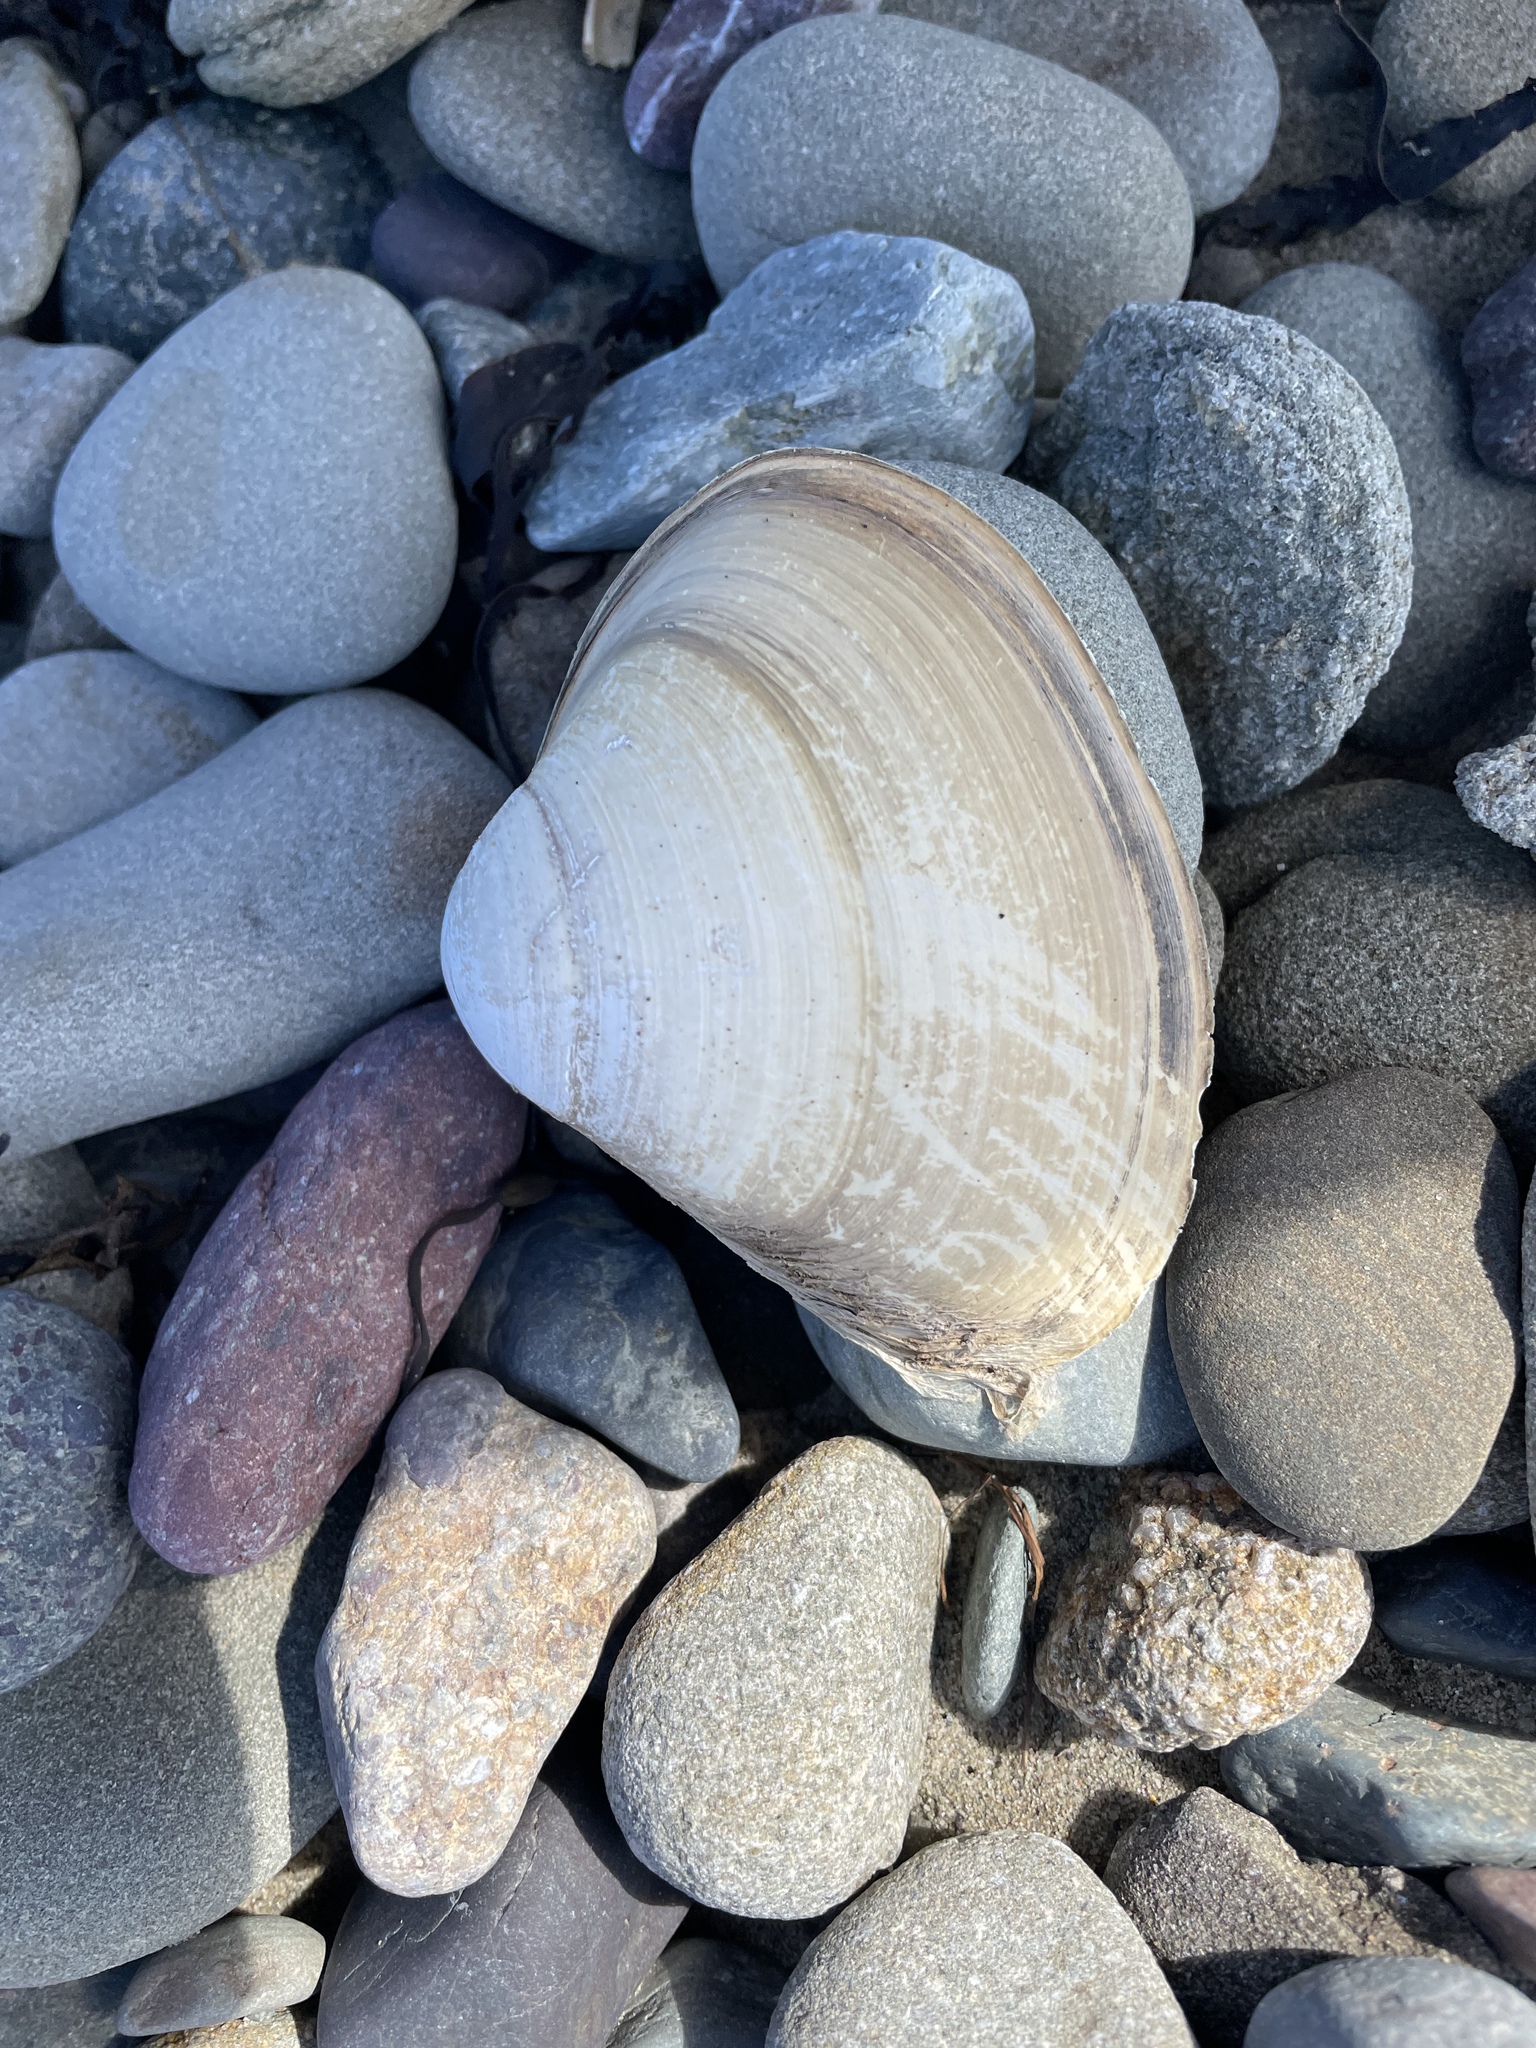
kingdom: Animalia
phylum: Mollusca
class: Bivalvia
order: Venerida
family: Mactridae
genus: Spisula
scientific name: Spisula solidissima
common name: Atlantic surf clam
